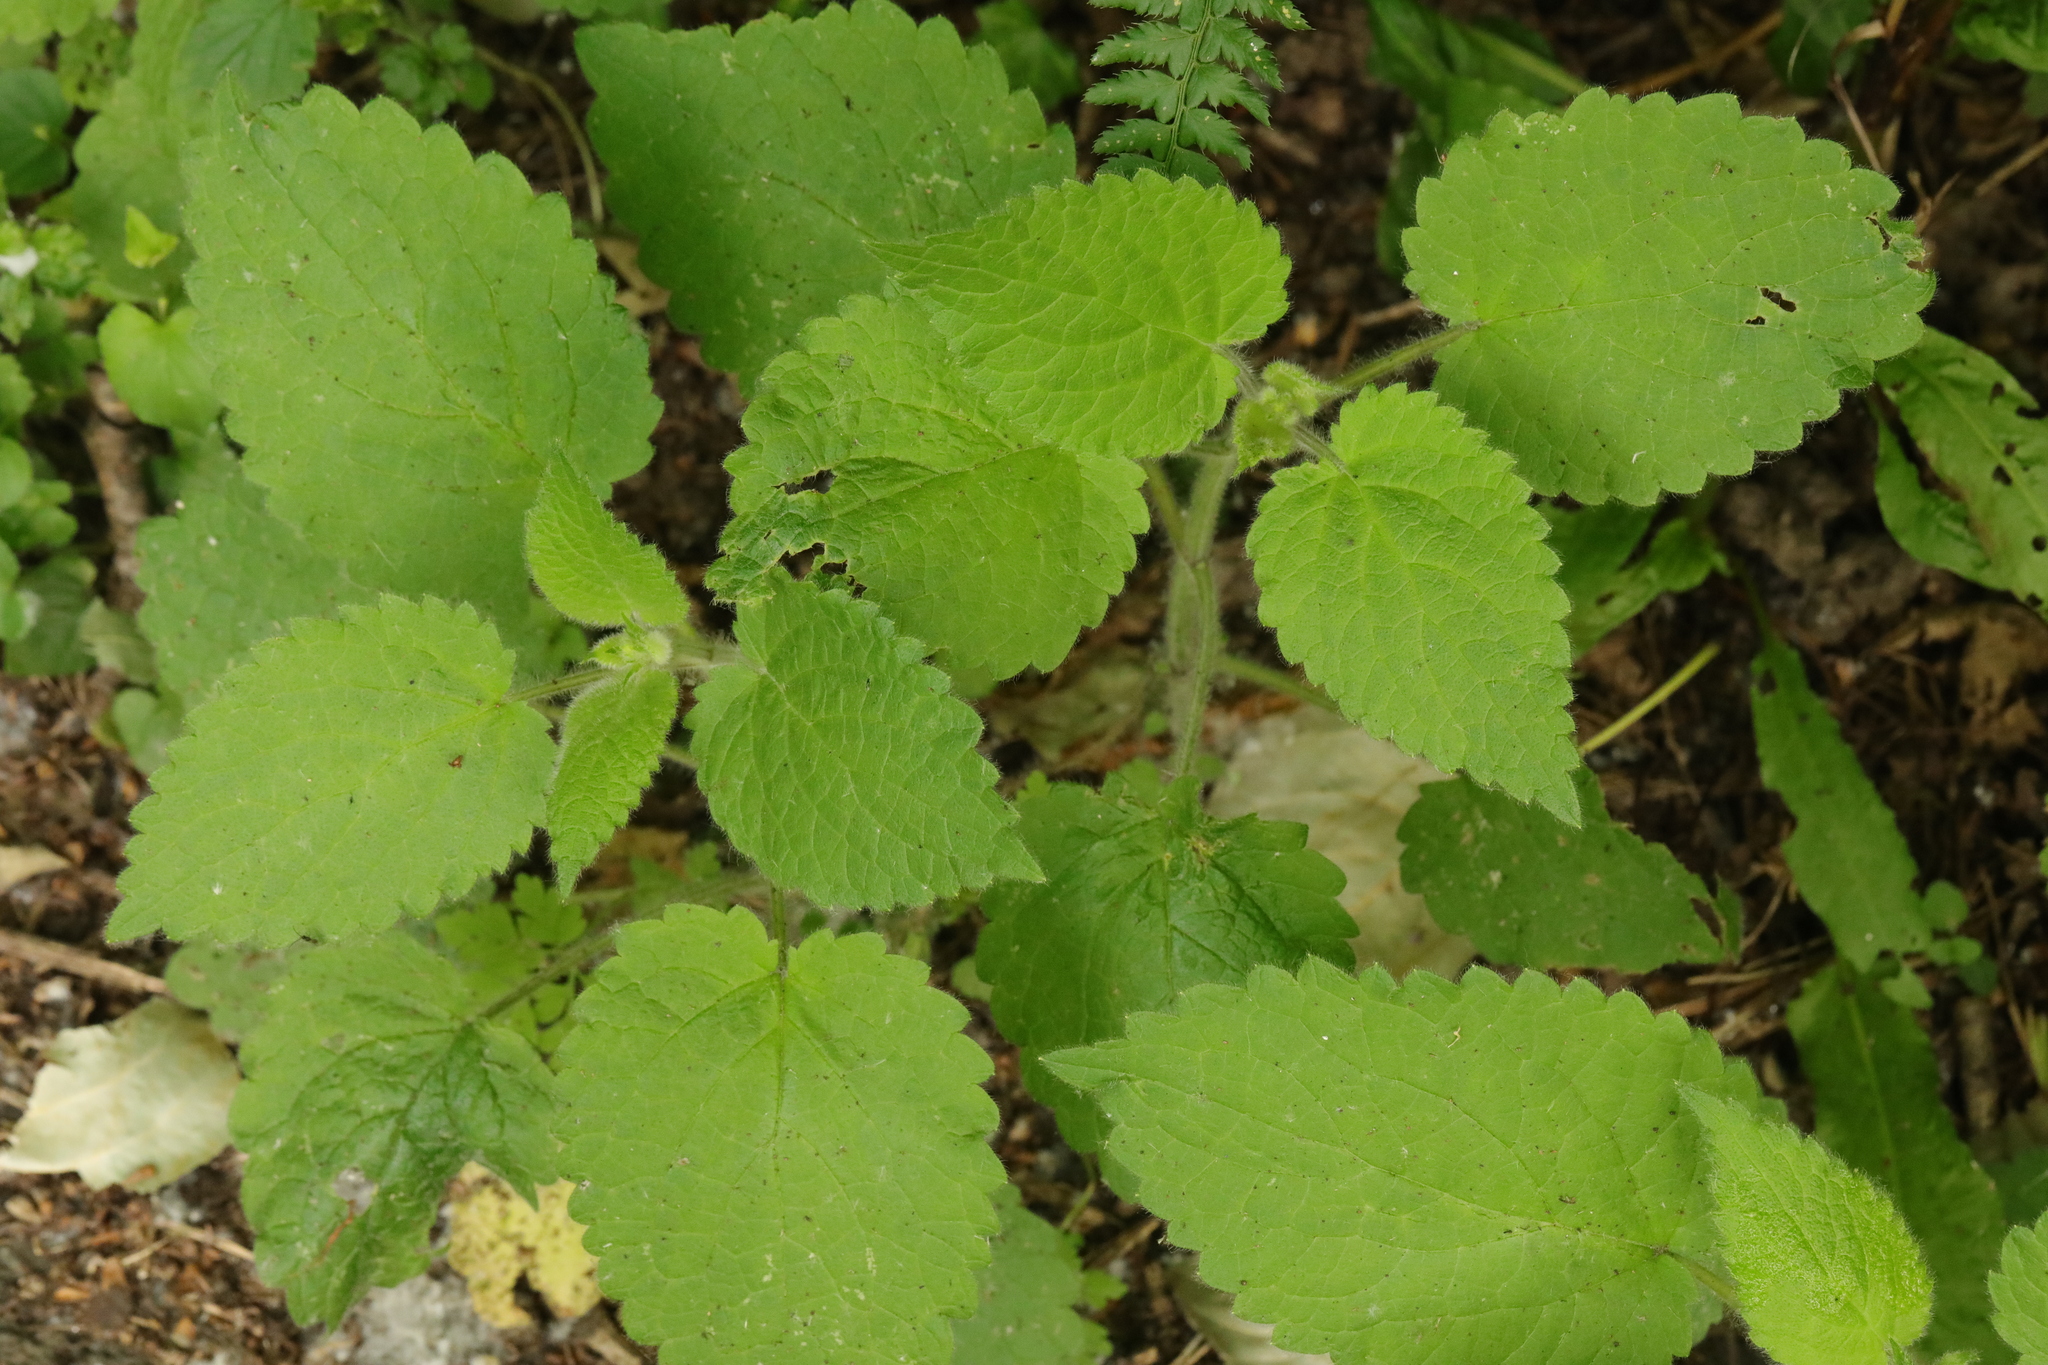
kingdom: Plantae
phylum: Tracheophyta
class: Magnoliopsida
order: Lamiales
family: Lamiaceae
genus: Stachys
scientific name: Stachys sylvatica
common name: Hedge woundwort
